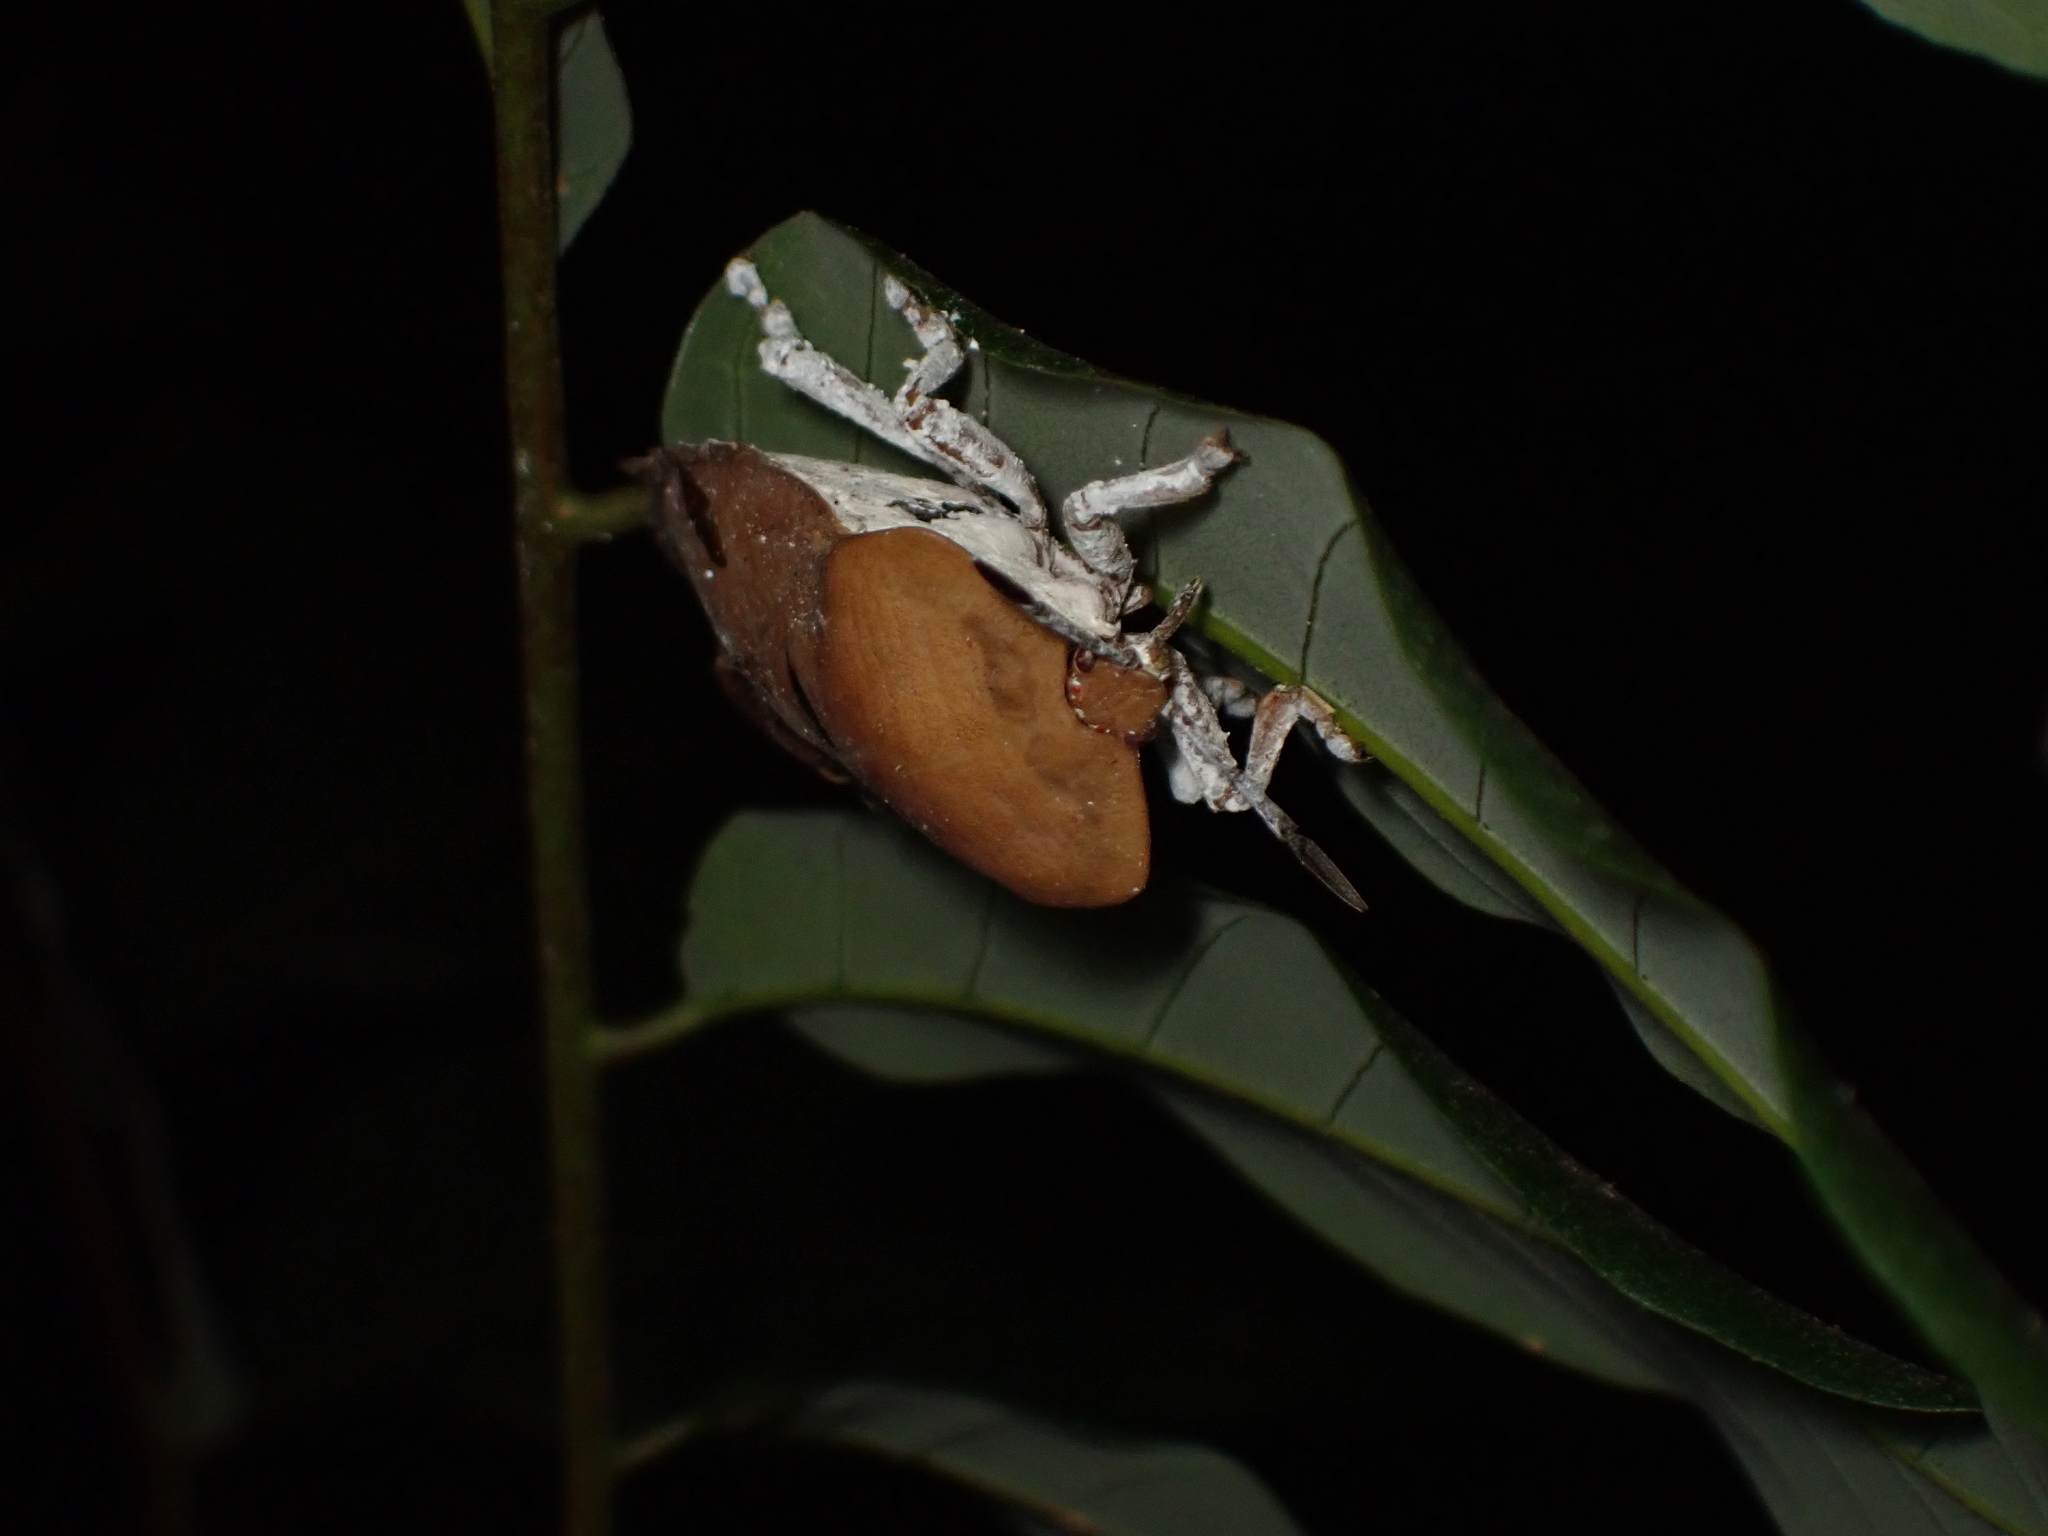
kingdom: Animalia
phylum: Arthropoda
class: Insecta
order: Hemiptera
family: Tessaratomidae
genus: Tessaratoma
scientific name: Tessaratoma papillosa
